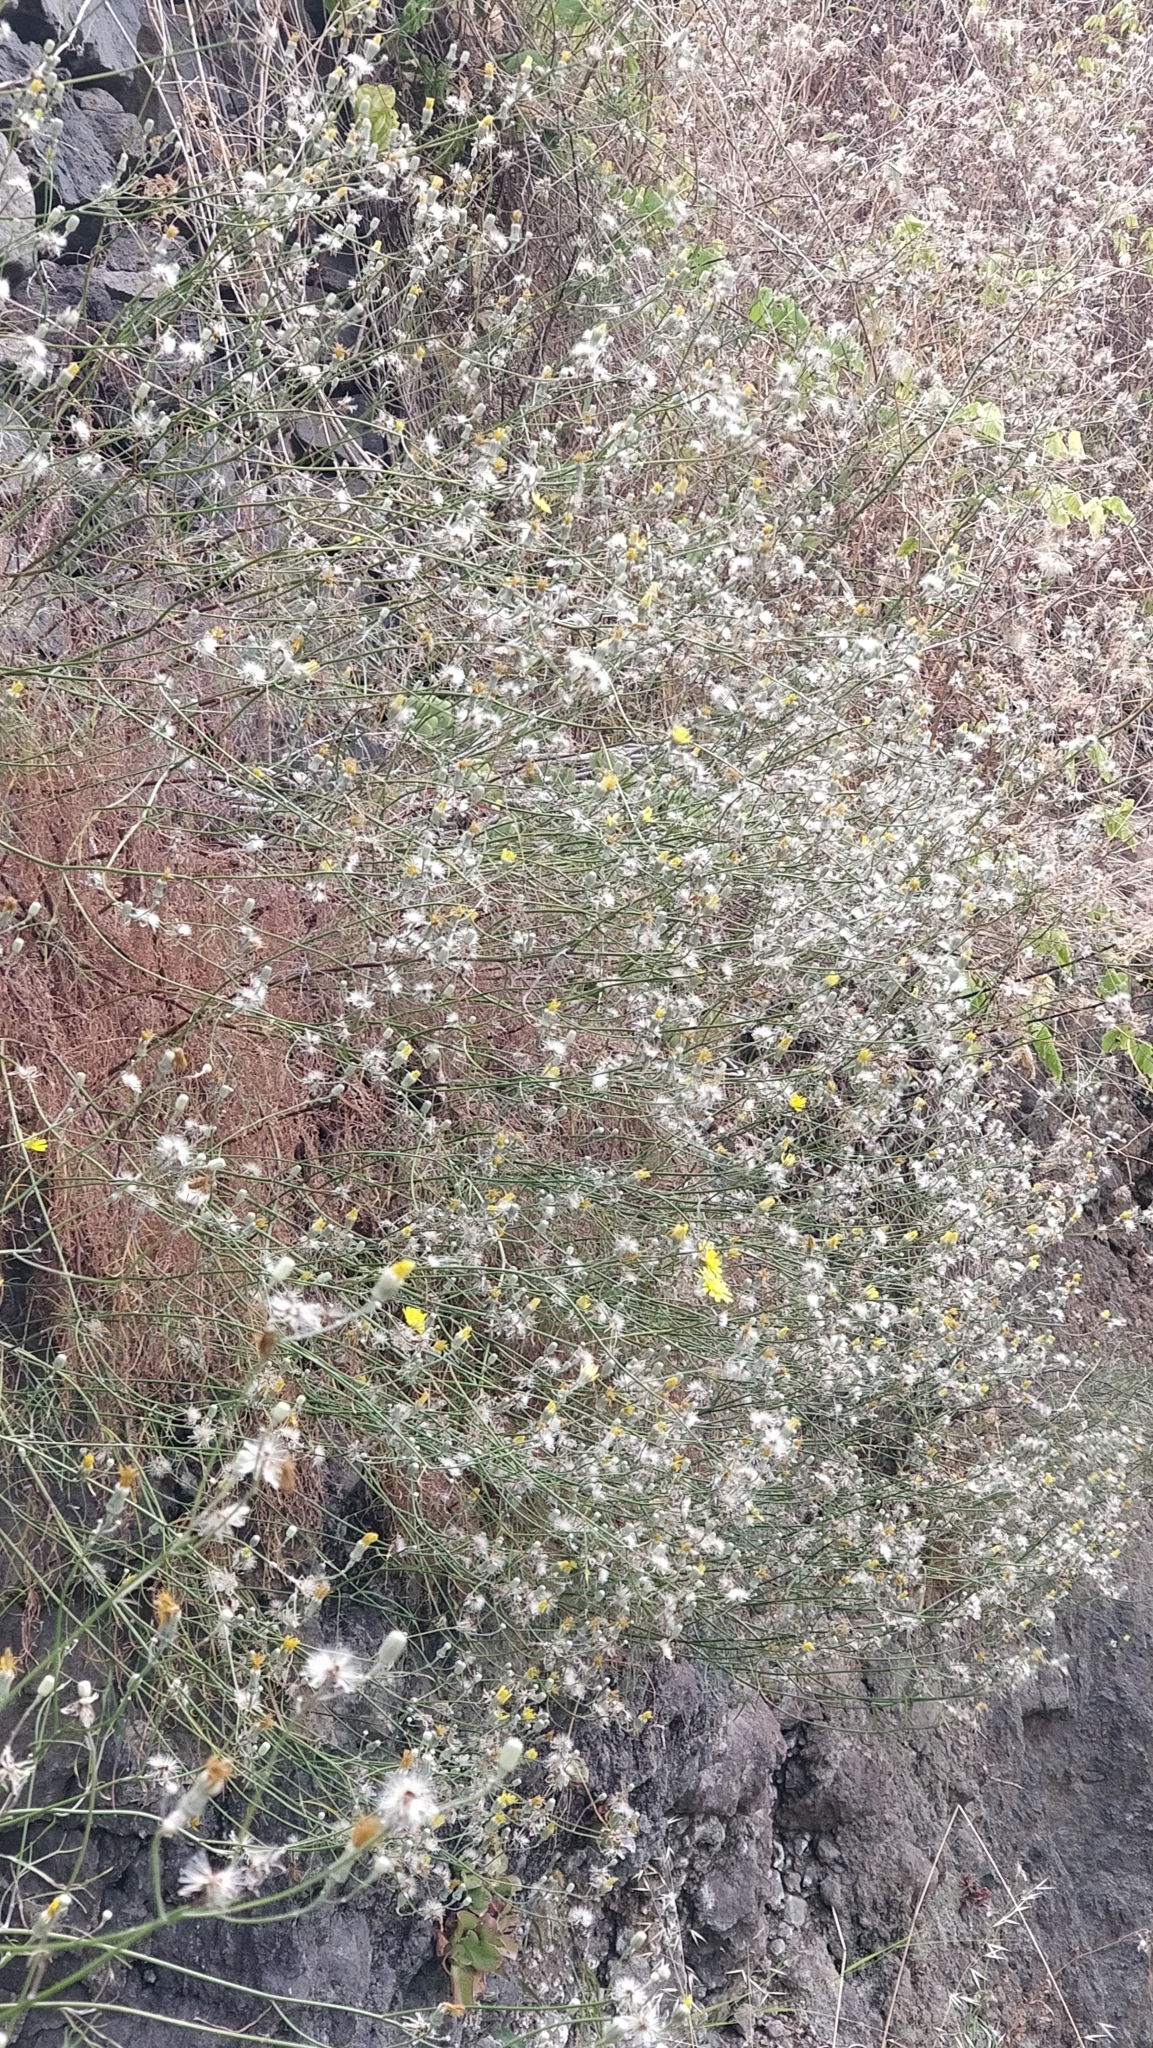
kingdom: Plantae
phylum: Tracheophyta
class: Magnoliopsida
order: Asterales
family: Asteraceae
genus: Tolpis
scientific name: Tolpis succulenta
